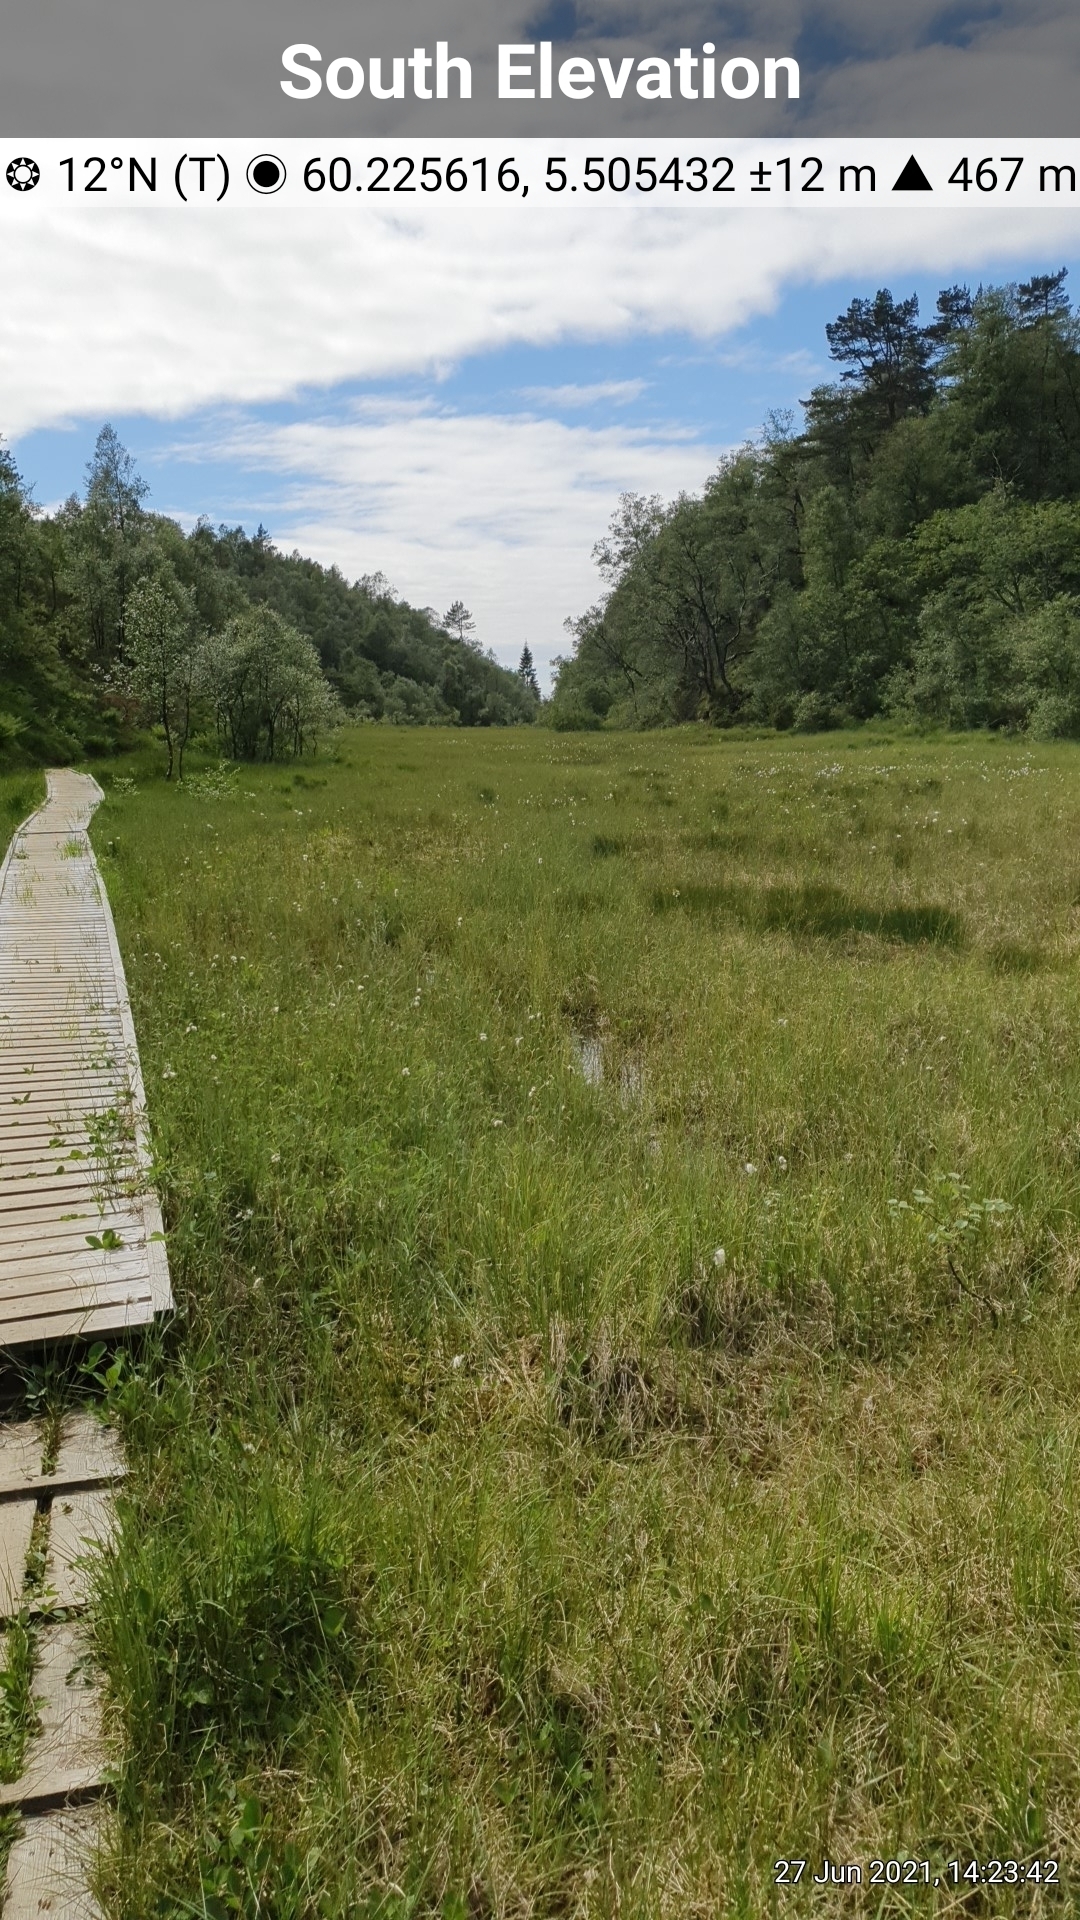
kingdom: Plantae
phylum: Tracheophyta
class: Magnoliopsida
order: Rosales
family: Rosaceae
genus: Potentilla
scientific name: Potentilla erecta
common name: Tormentil
